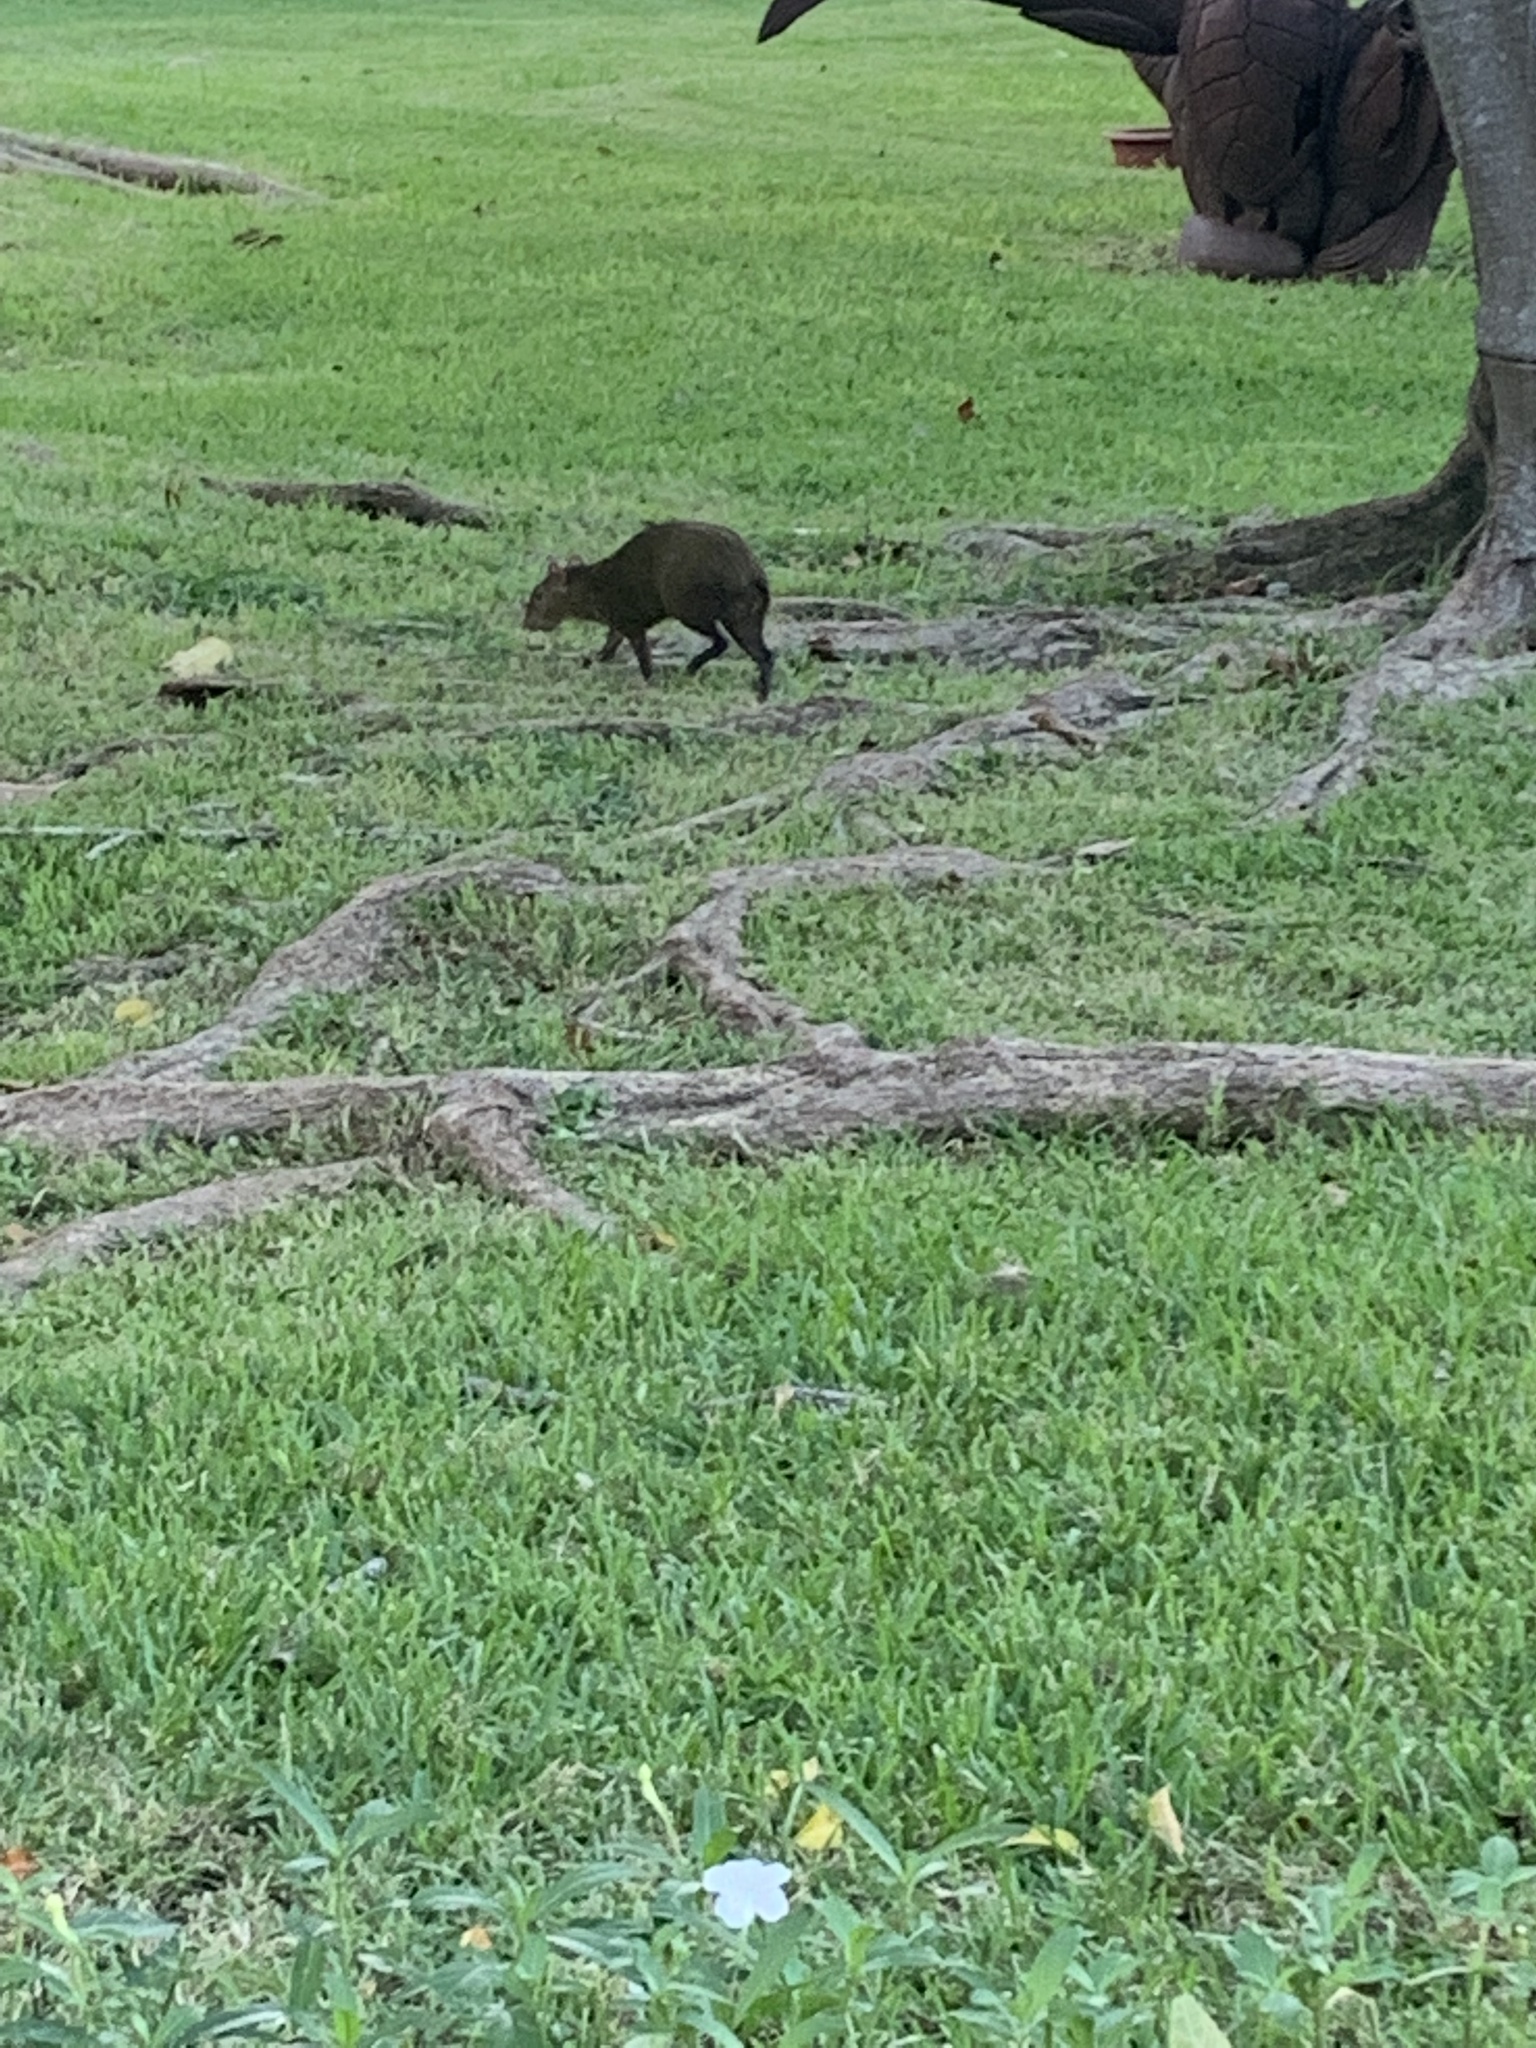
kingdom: Animalia
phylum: Chordata
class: Mammalia
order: Rodentia
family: Dasyproctidae
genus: Dasyprocta
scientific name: Dasyprocta punctata
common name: Central american agouti
